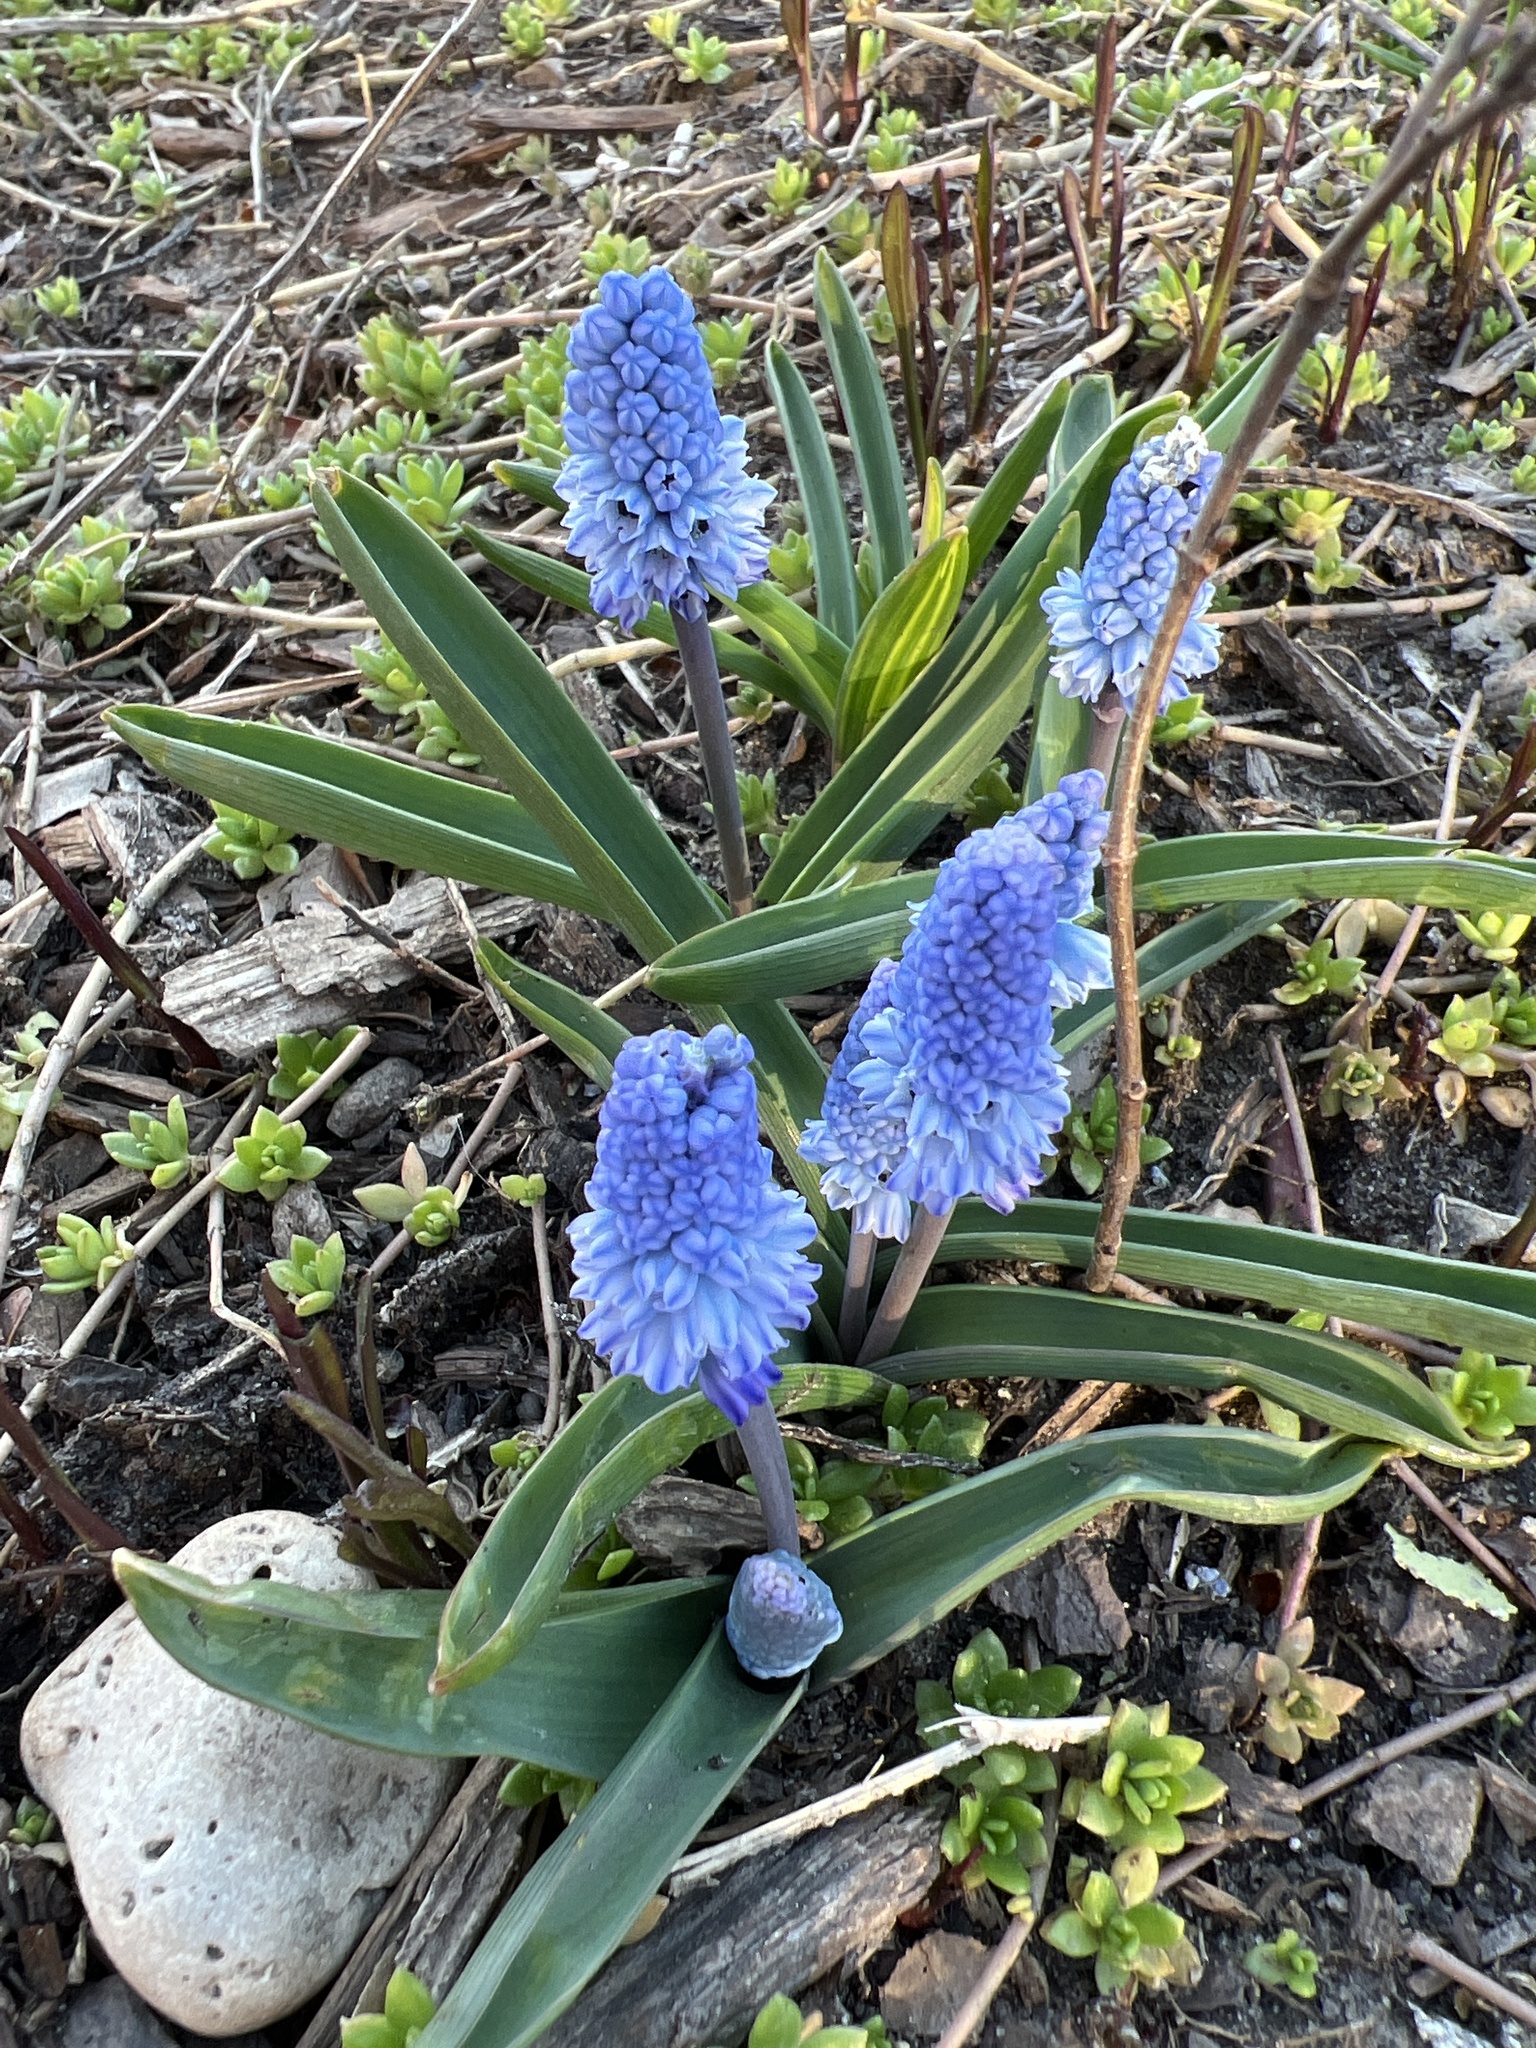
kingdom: Plantae
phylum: Tracheophyta
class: Liliopsida
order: Asparagales
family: Asparagaceae
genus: Muscari
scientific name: Muscari azureum
